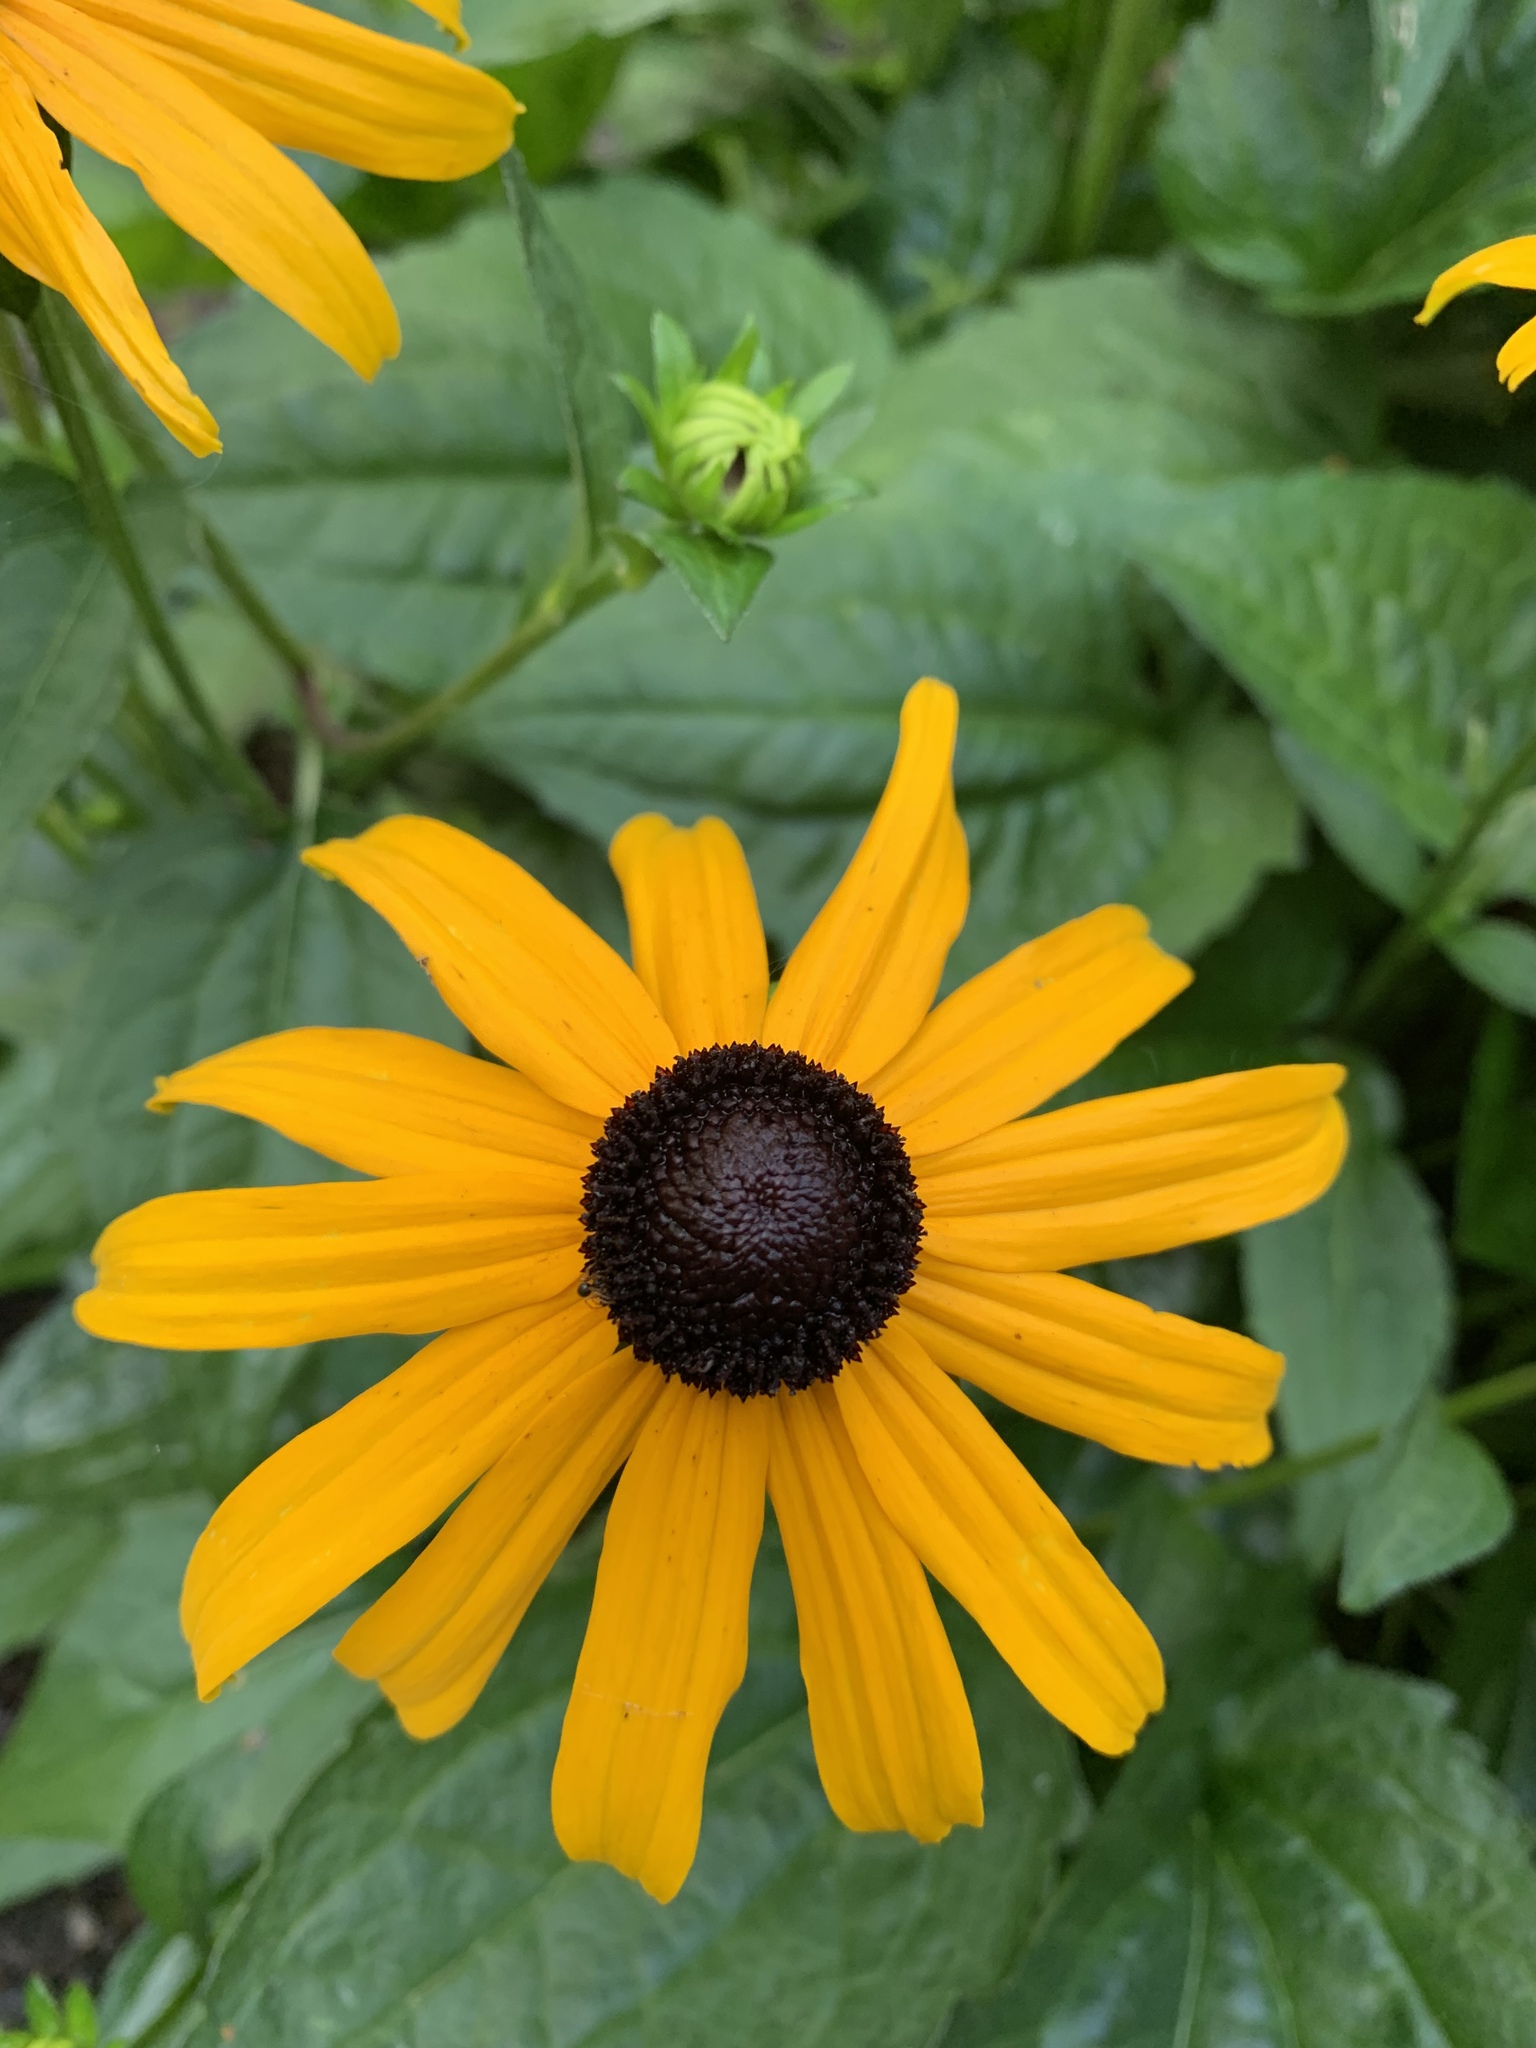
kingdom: Plantae
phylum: Tracheophyta
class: Magnoliopsida
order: Asterales
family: Asteraceae
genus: Rudbeckia
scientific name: Rudbeckia hirta
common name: Black-eyed-susan
